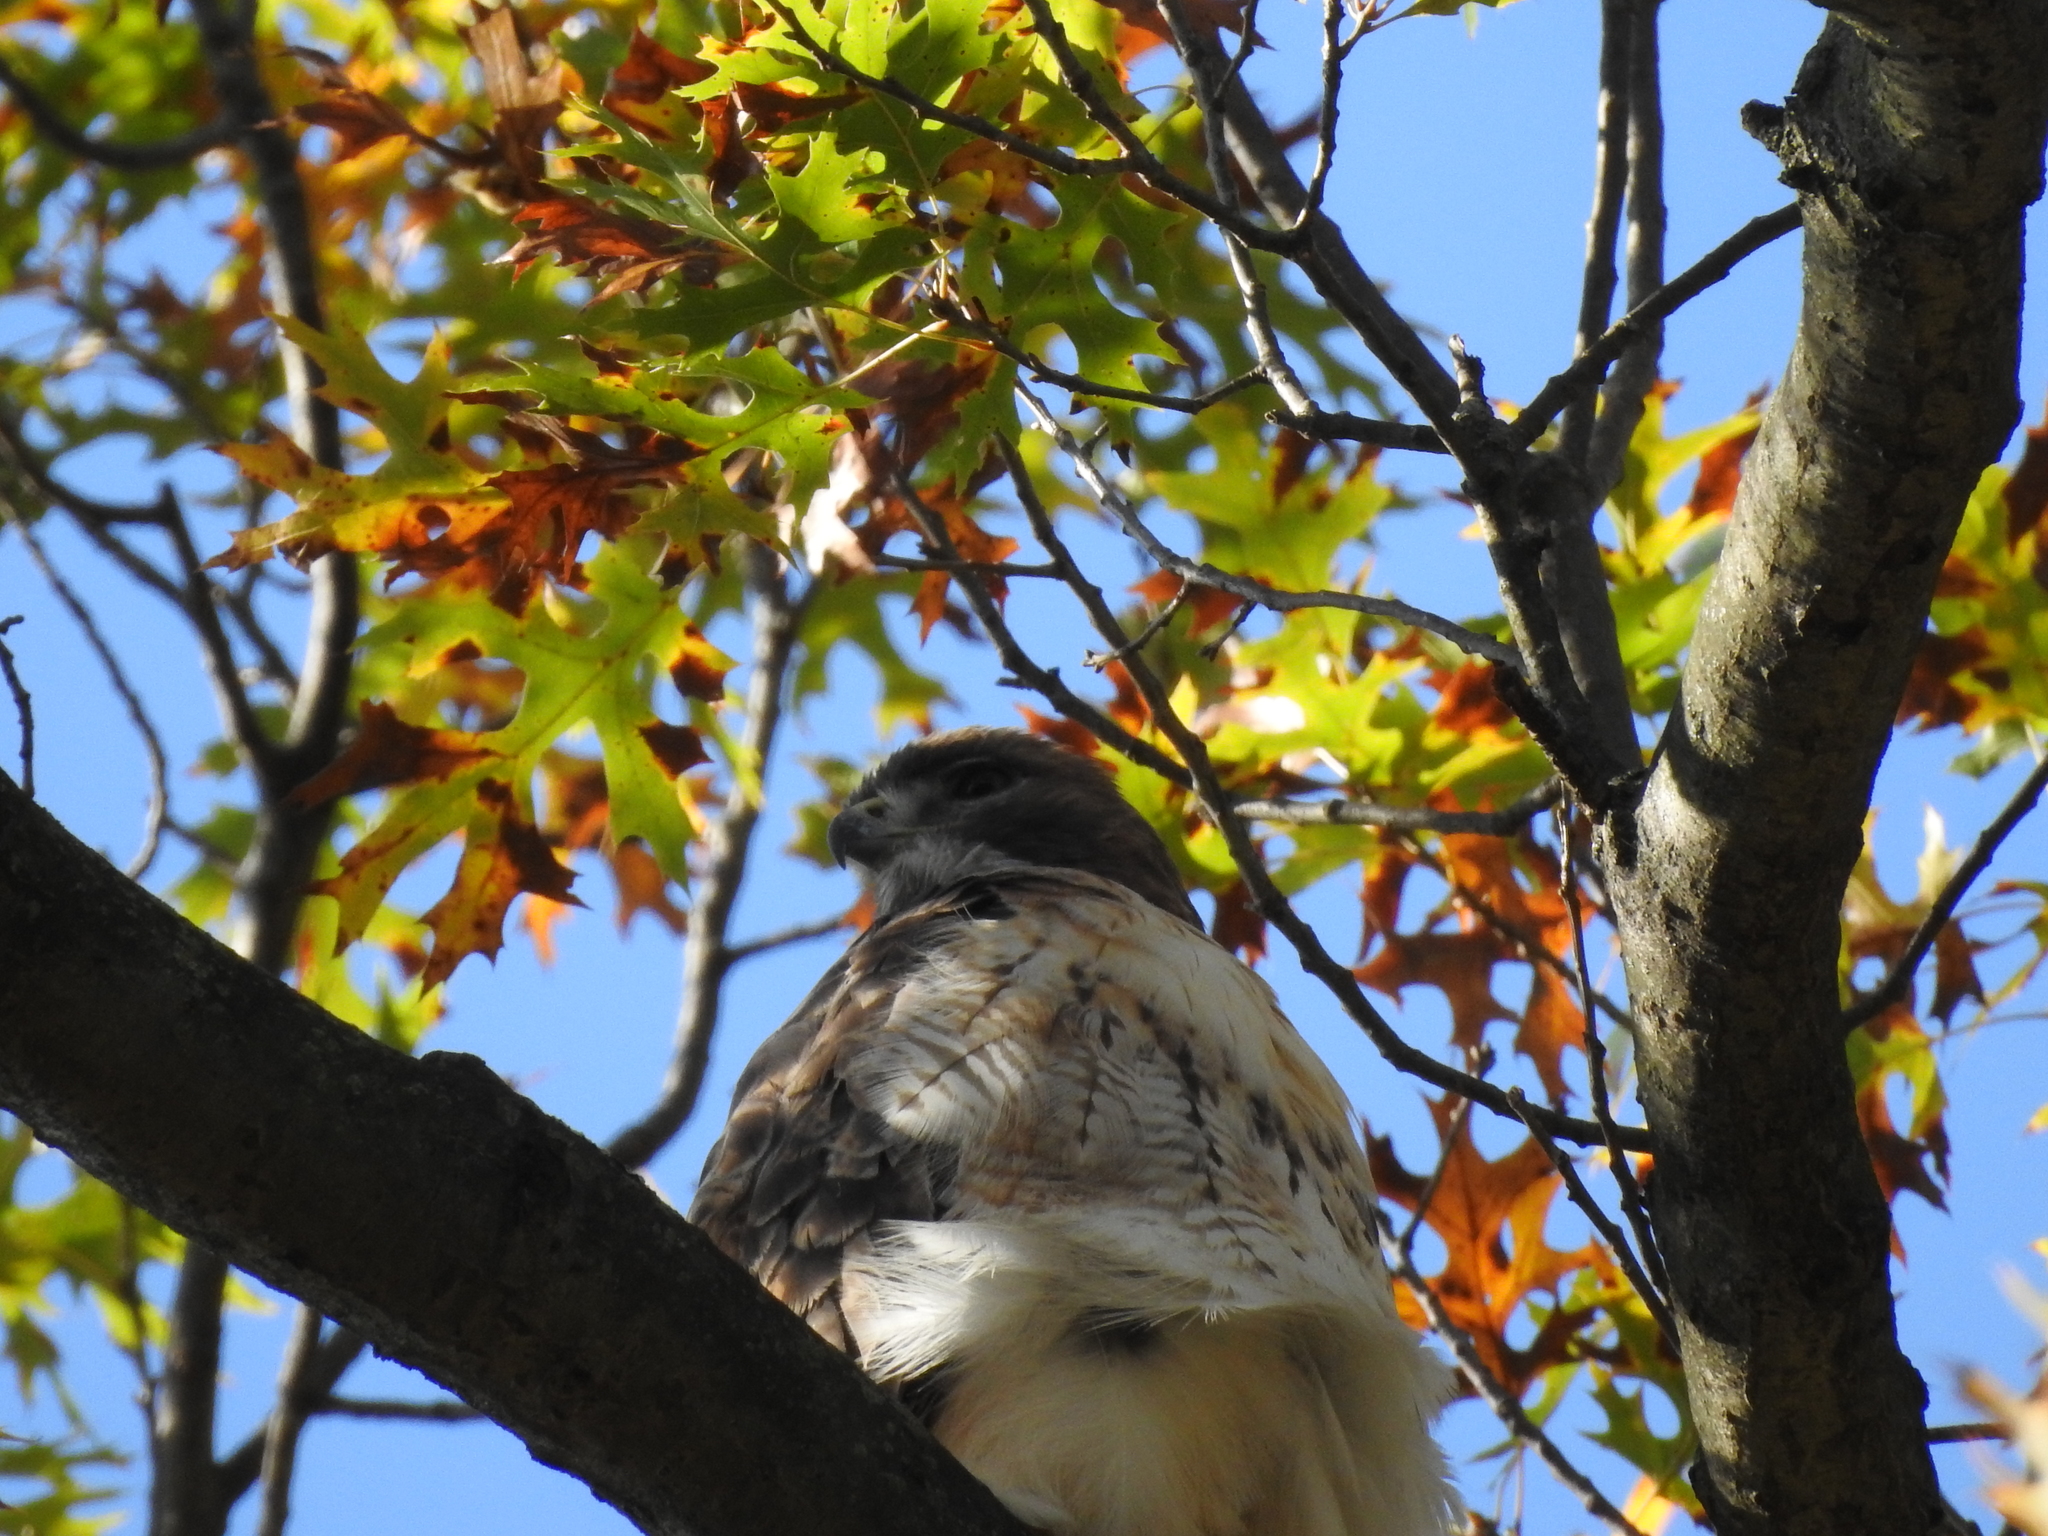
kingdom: Animalia
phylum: Chordata
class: Aves
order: Accipitriformes
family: Accipitridae
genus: Buteo
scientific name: Buteo jamaicensis
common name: Red-tailed hawk
